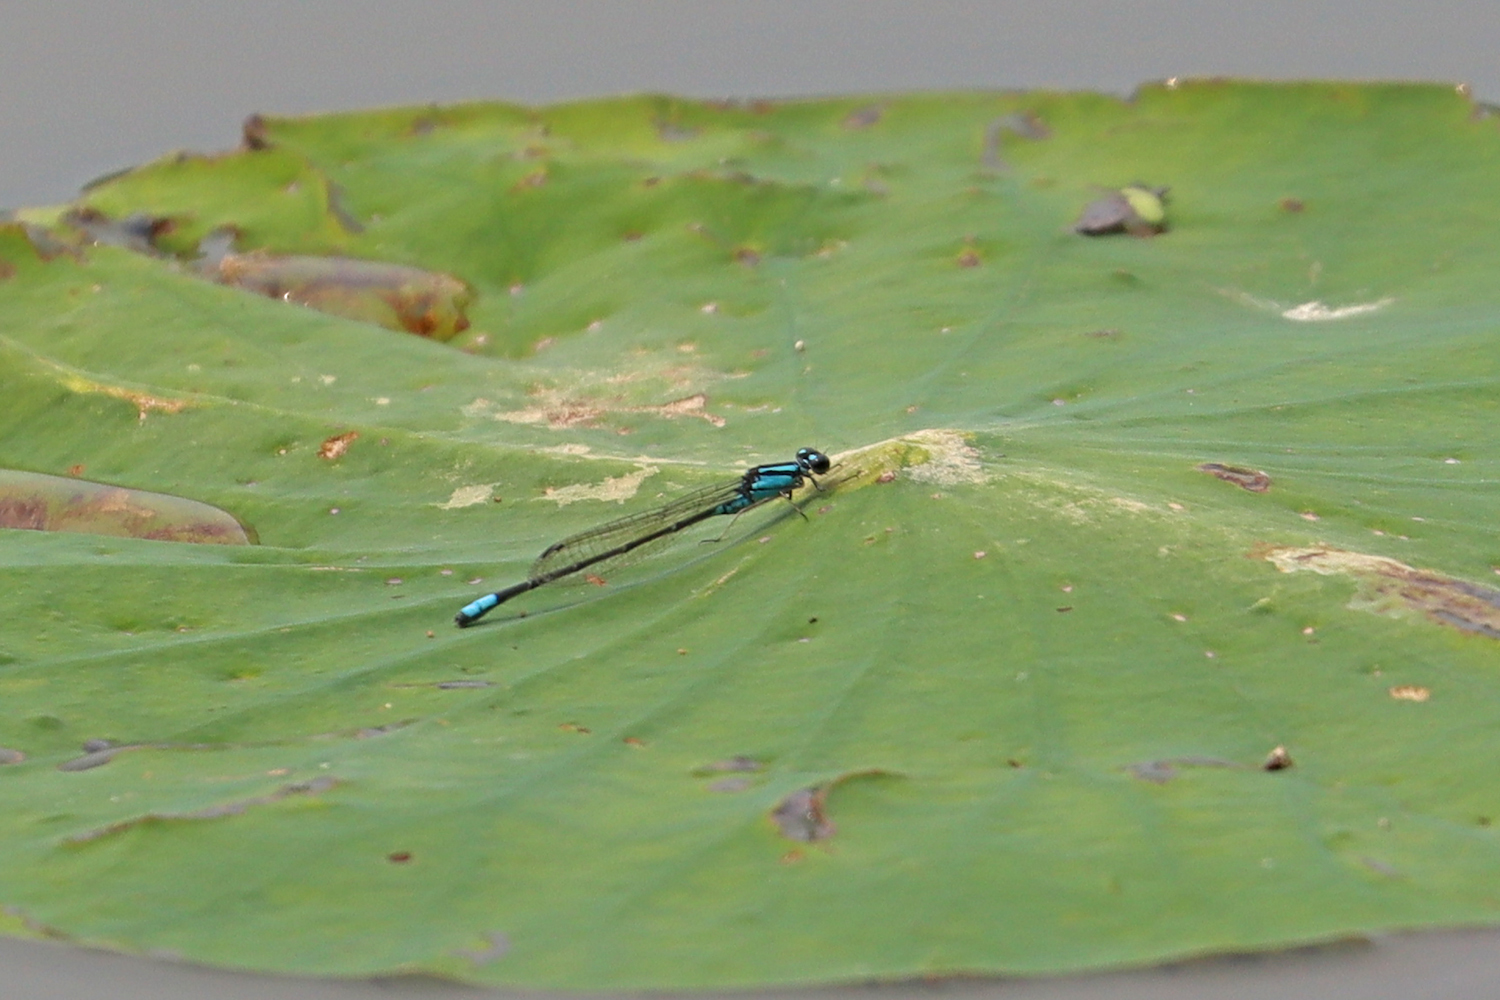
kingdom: Animalia
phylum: Arthropoda
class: Insecta
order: Odonata
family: Coenagrionidae
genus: Enallagma
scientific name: Enallagma geminatum
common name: Skimming bluet
